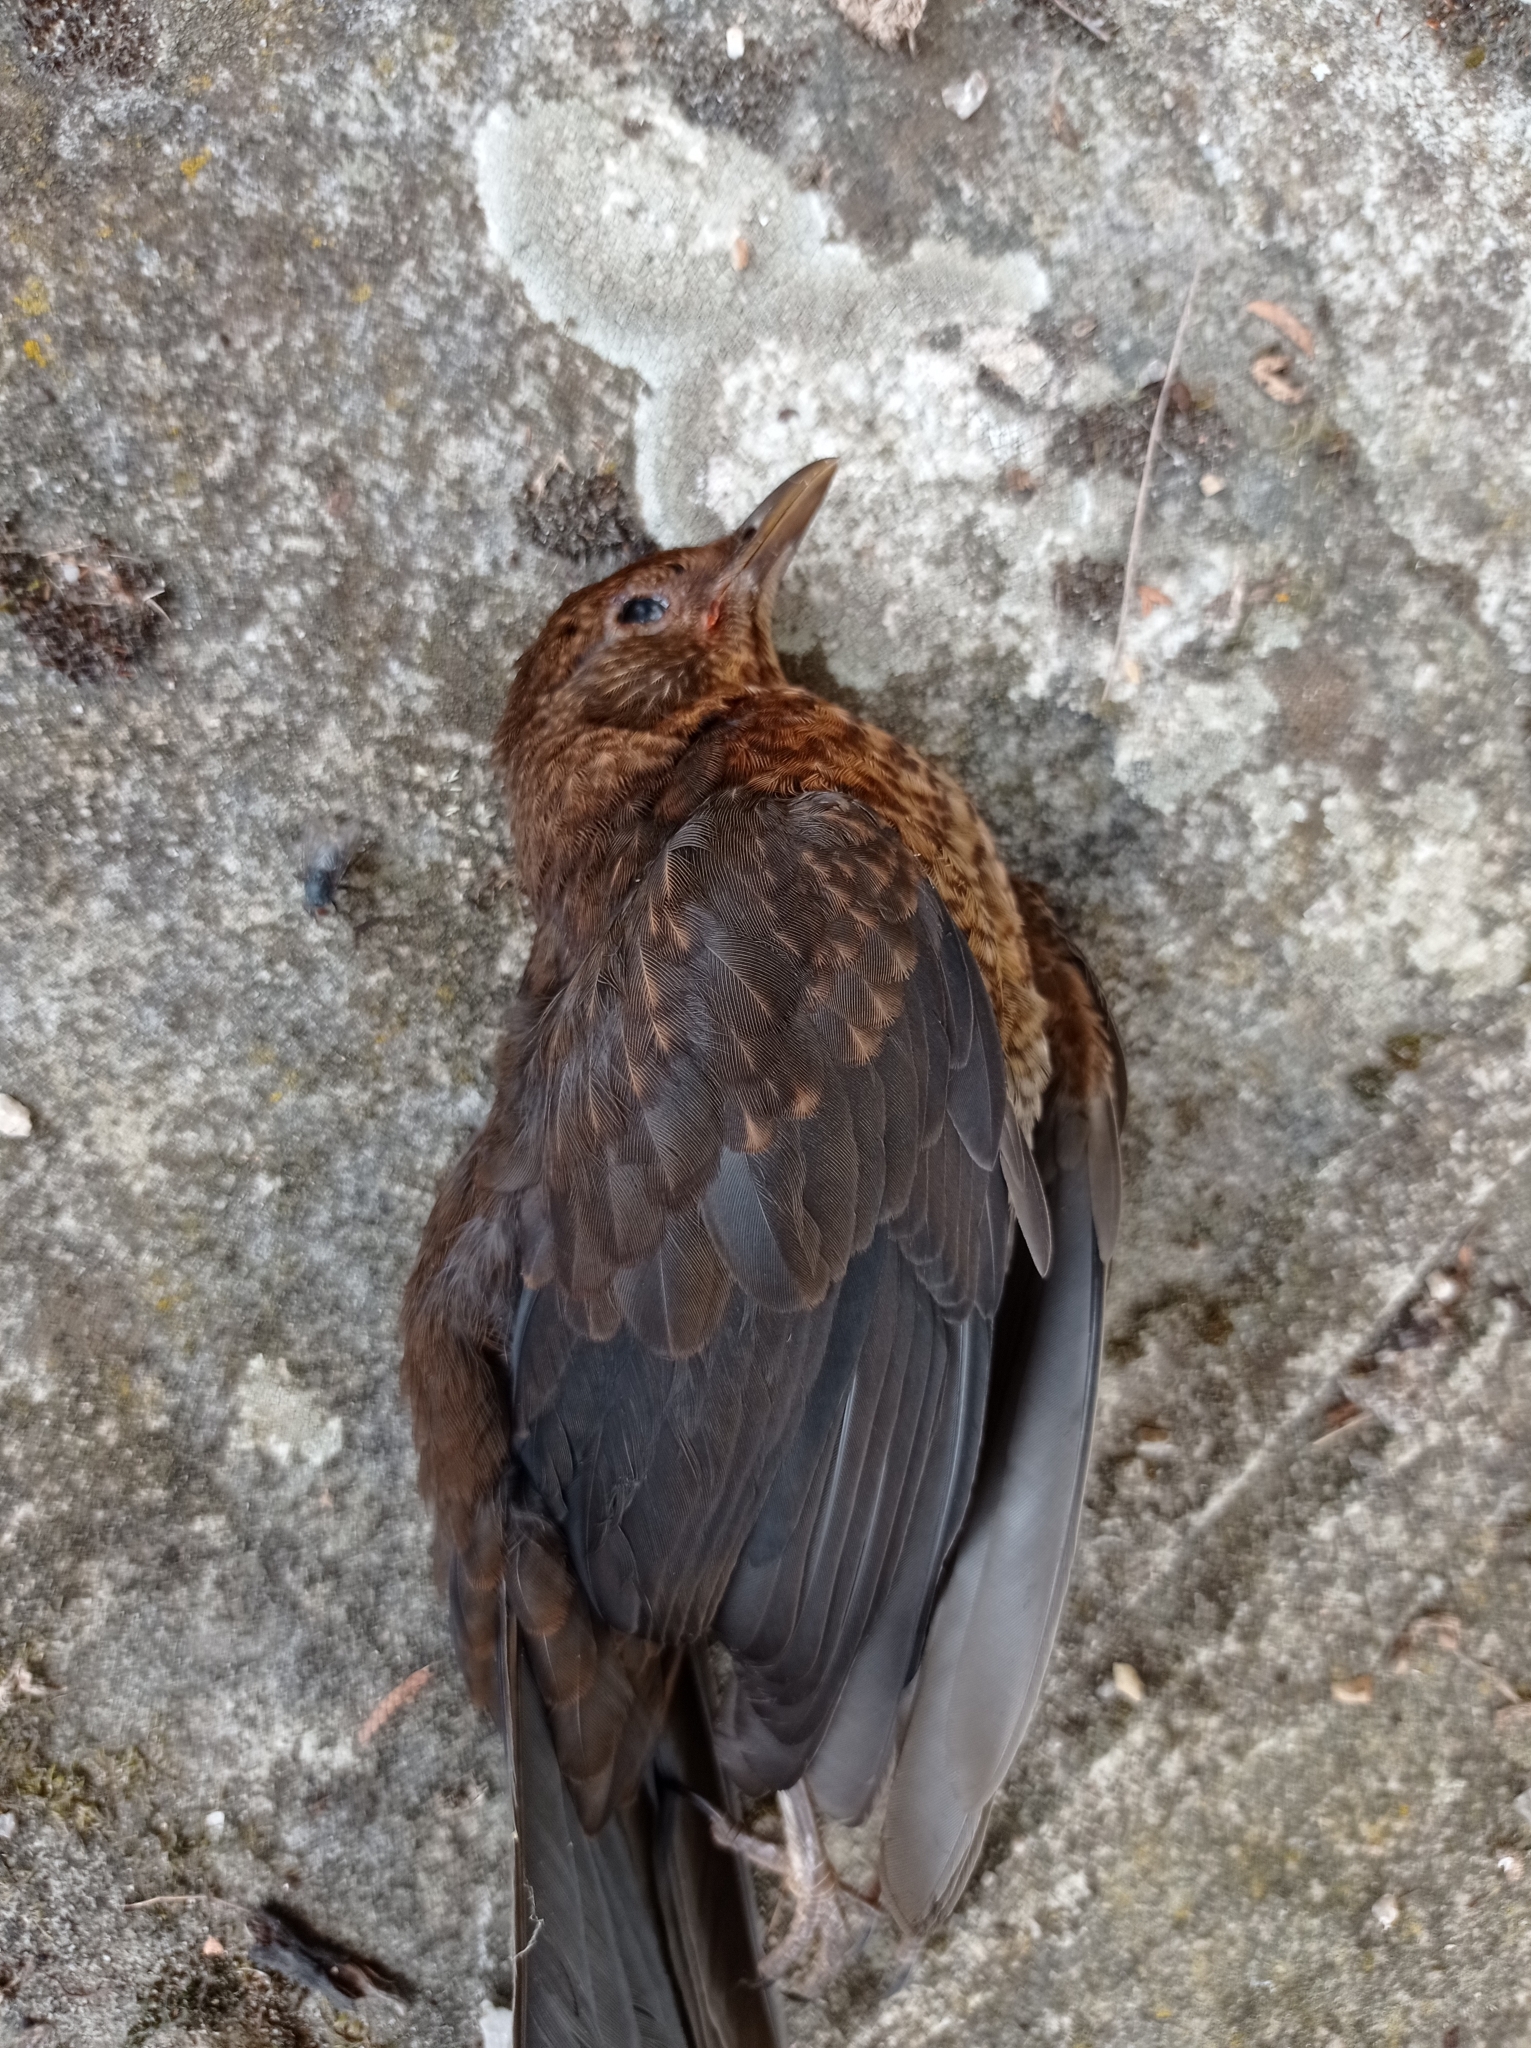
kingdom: Animalia
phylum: Chordata
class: Aves
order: Passeriformes
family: Turdidae
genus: Turdus
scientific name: Turdus merula
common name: Common blackbird
